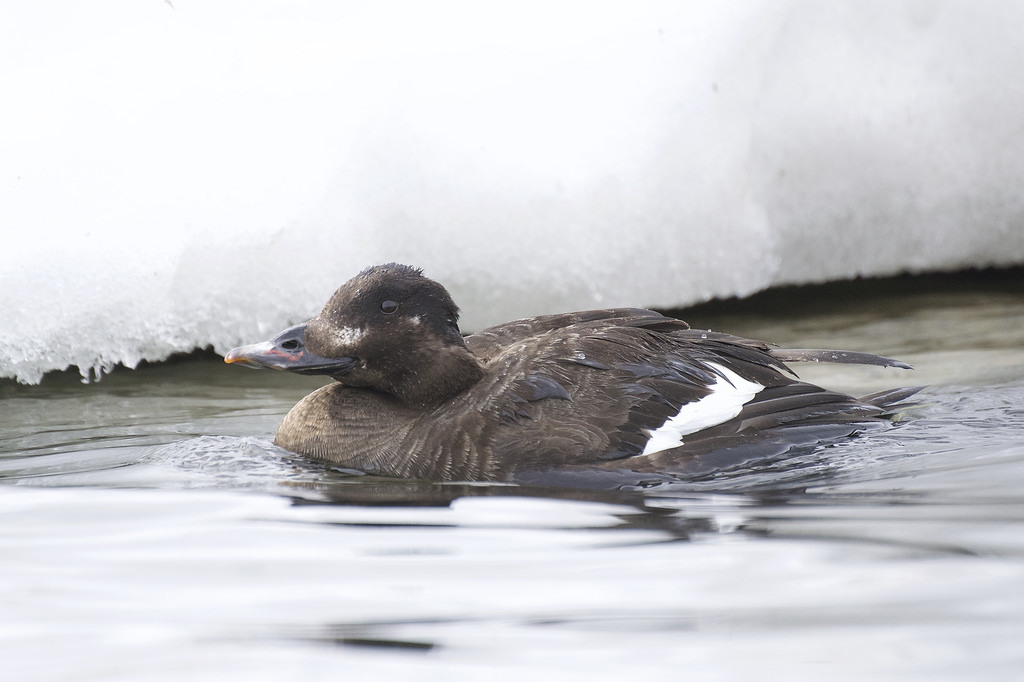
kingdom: Animalia
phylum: Chordata
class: Aves
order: Anseriformes
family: Anatidae
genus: Melanitta
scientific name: Melanitta deglandi
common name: White-winged scoter
